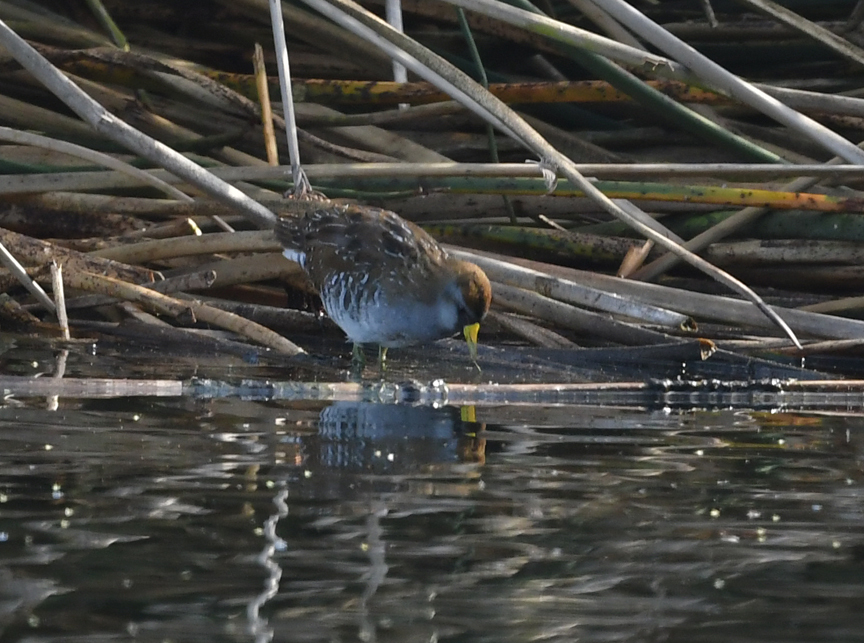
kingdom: Animalia
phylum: Chordata
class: Aves
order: Gruiformes
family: Rallidae
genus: Porzana
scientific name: Porzana carolina
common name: Sora
